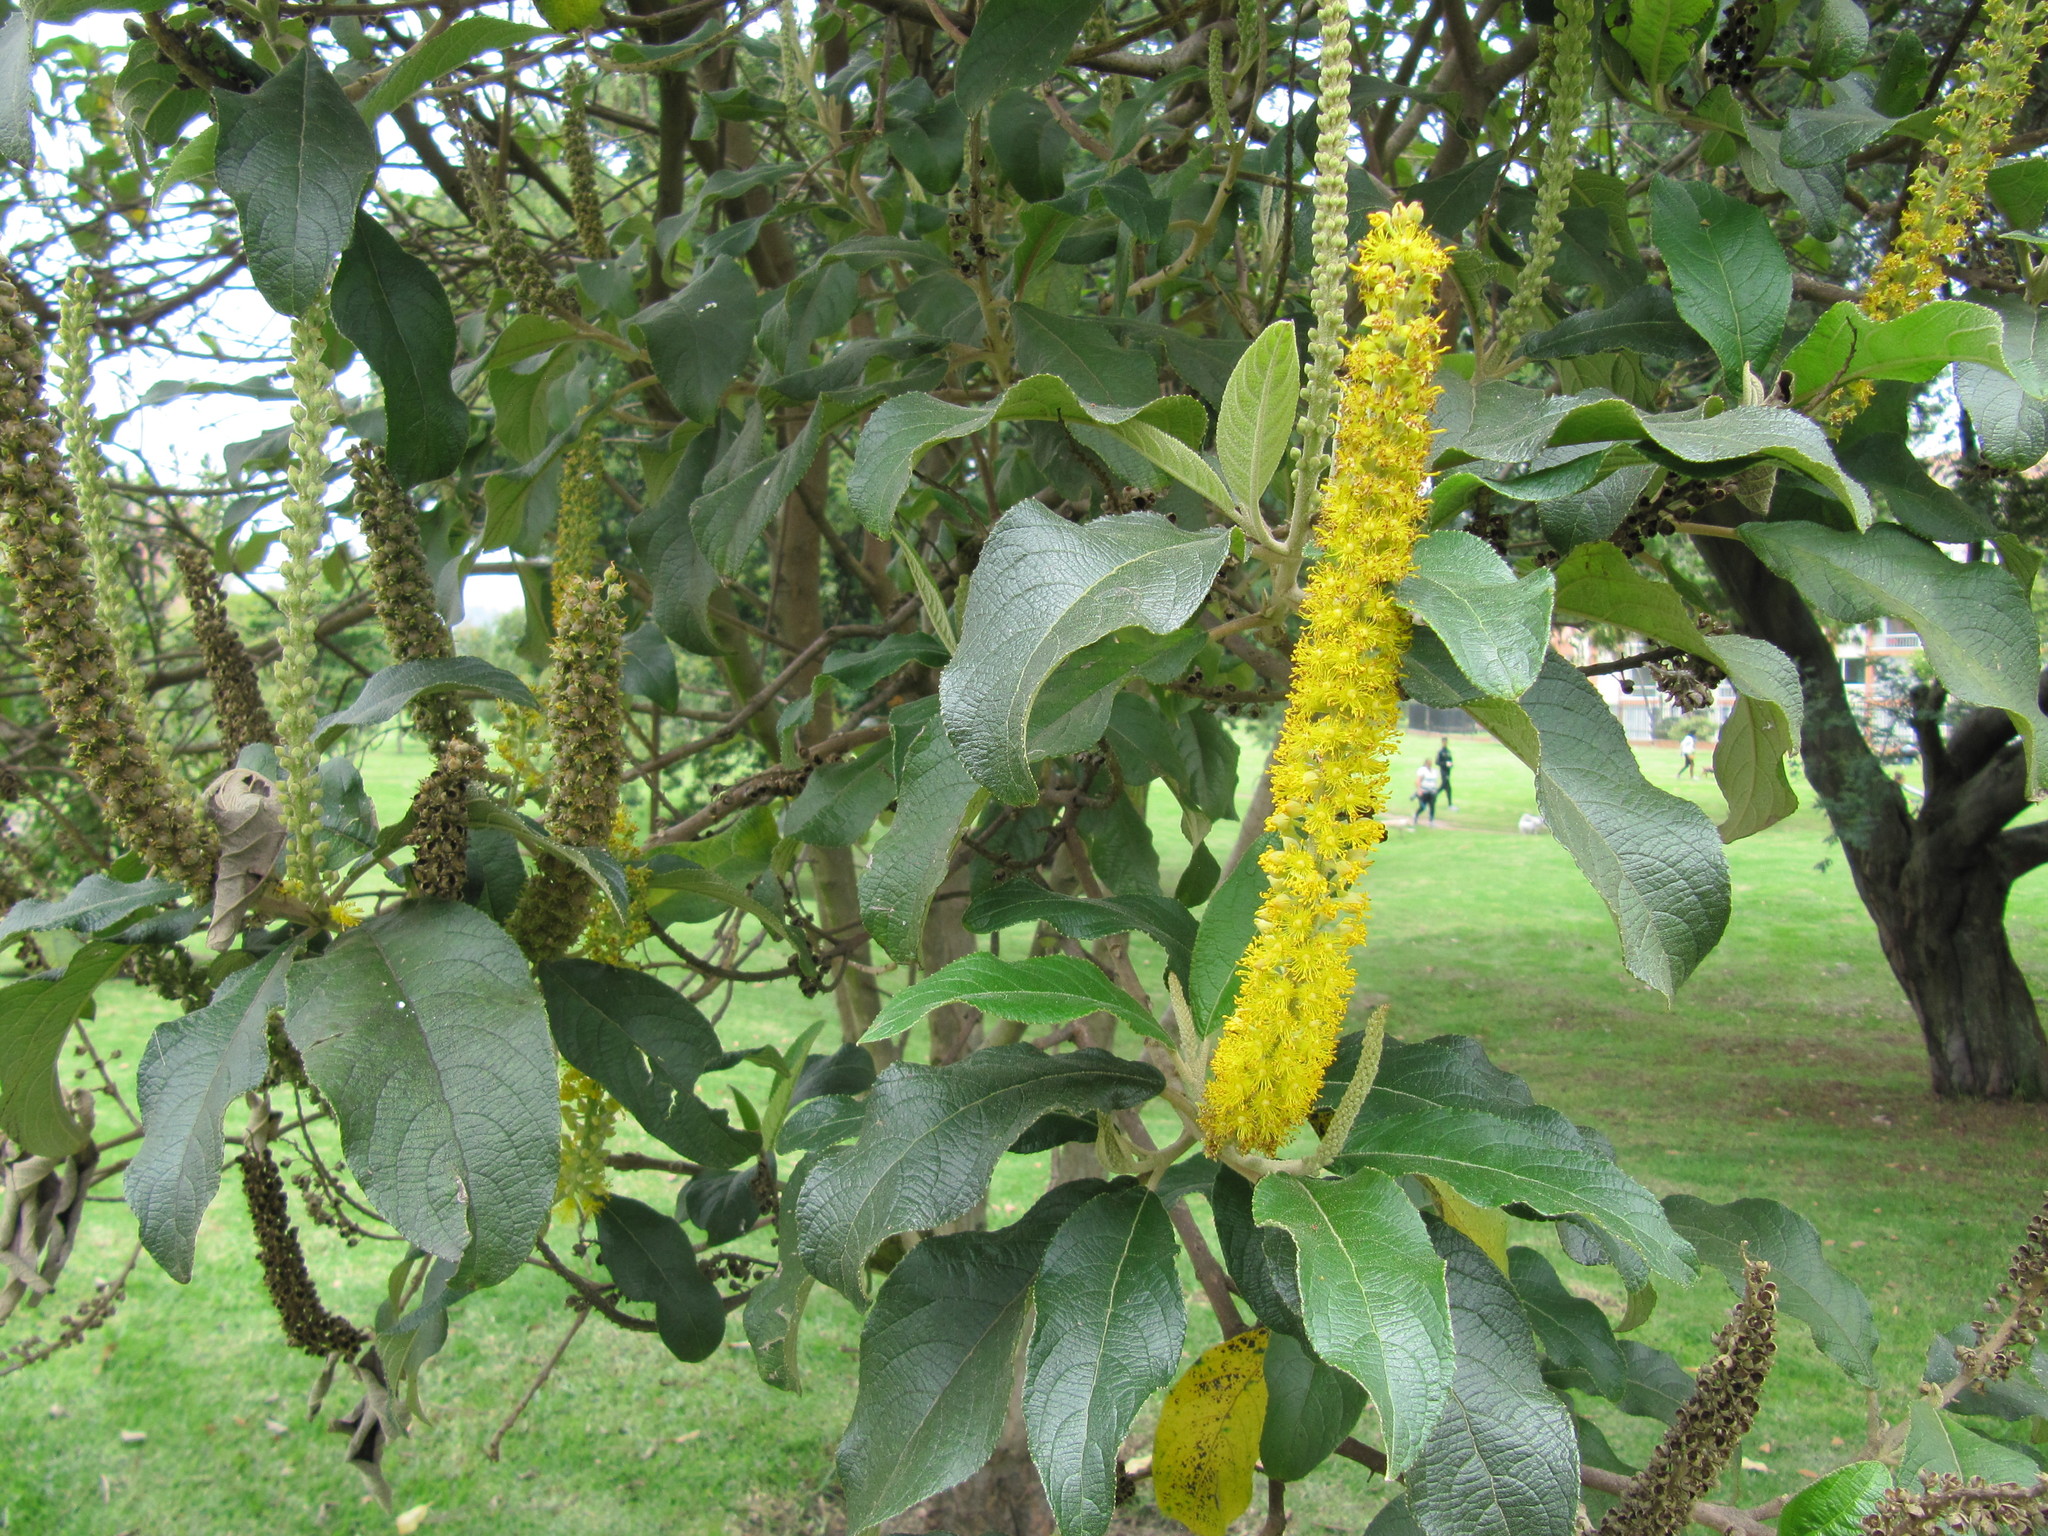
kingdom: Plantae
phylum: Tracheophyta
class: Magnoliopsida
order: Malpighiales
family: Salicaceae
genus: Abatia
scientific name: Abatia parviflora
